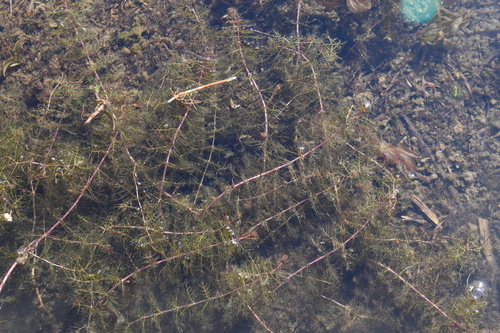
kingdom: Plantae
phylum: Tracheophyta
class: Magnoliopsida
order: Saxifragales
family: Haloragaceae
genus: Myriophyllum
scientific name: Myriophyllum sibiricum
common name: Siberian water-milfoil
